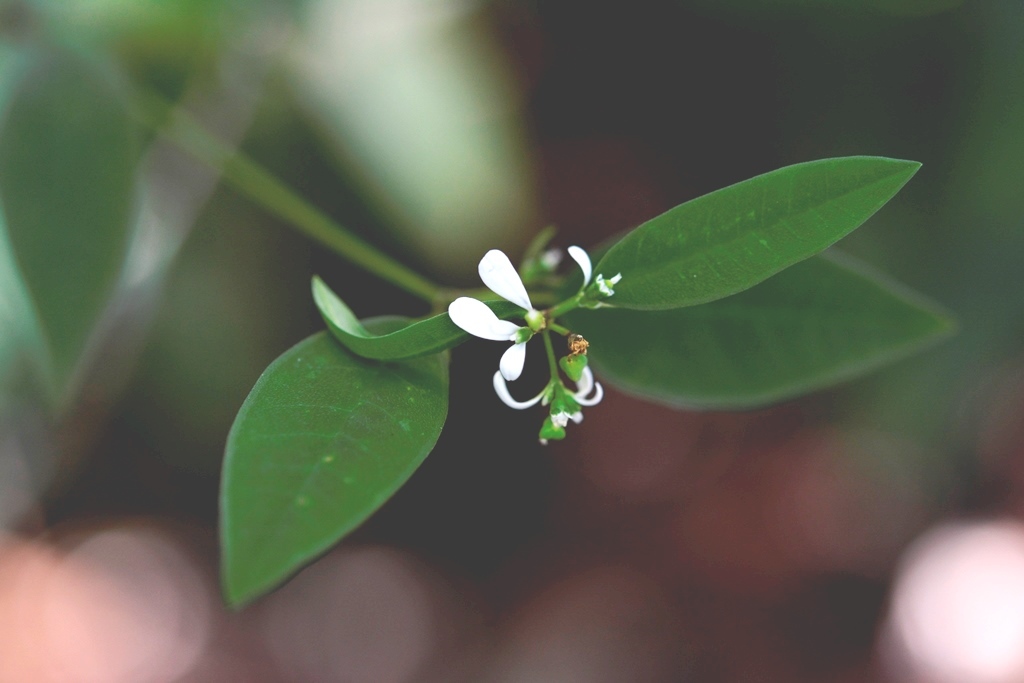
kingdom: Plantae
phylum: Tracheophyta
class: Magnoliopsida
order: Malpighiales
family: Euphorbiaceae
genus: Euphorbia
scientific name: Euphorbia graminea
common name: Grassleaf spurge
